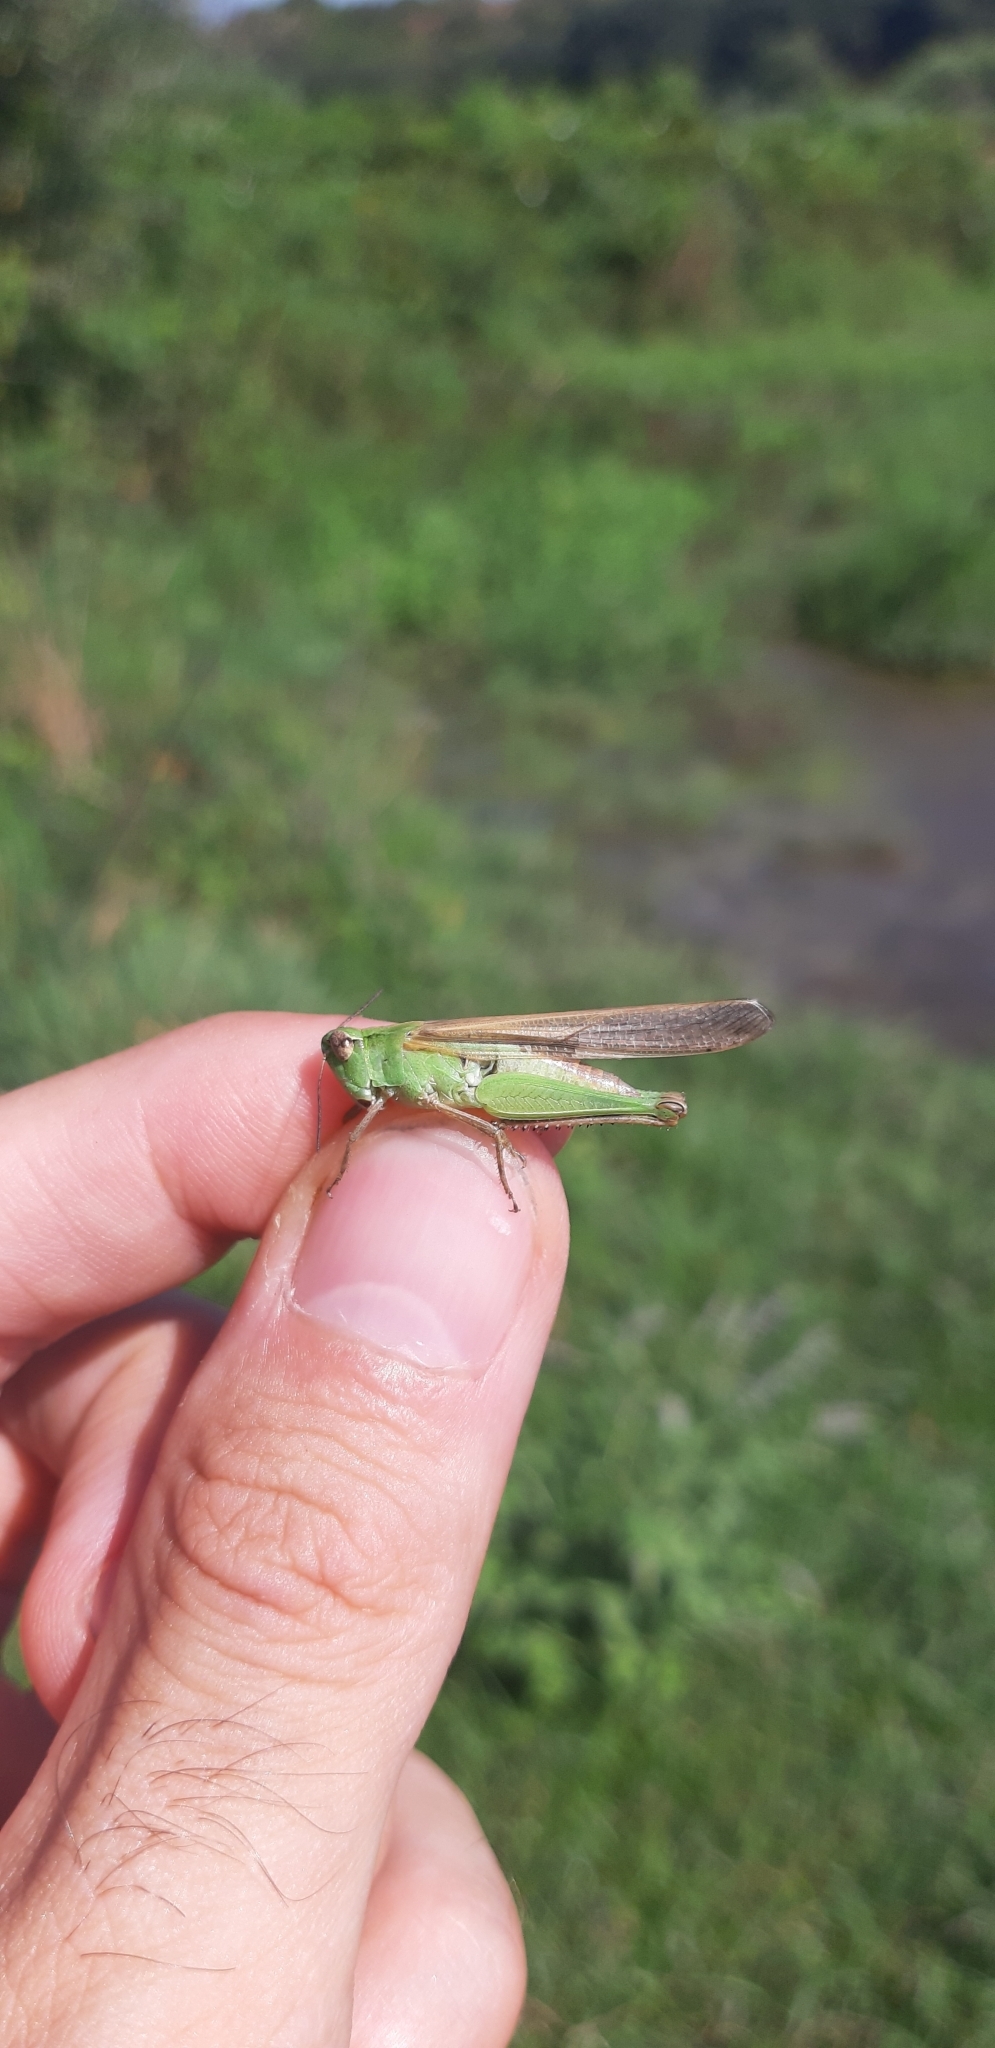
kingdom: Animalia
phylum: Arthropoda
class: Insecta
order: Orthoptera
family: Acrididae
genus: Aiolopus
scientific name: Aiolopus puissanti
